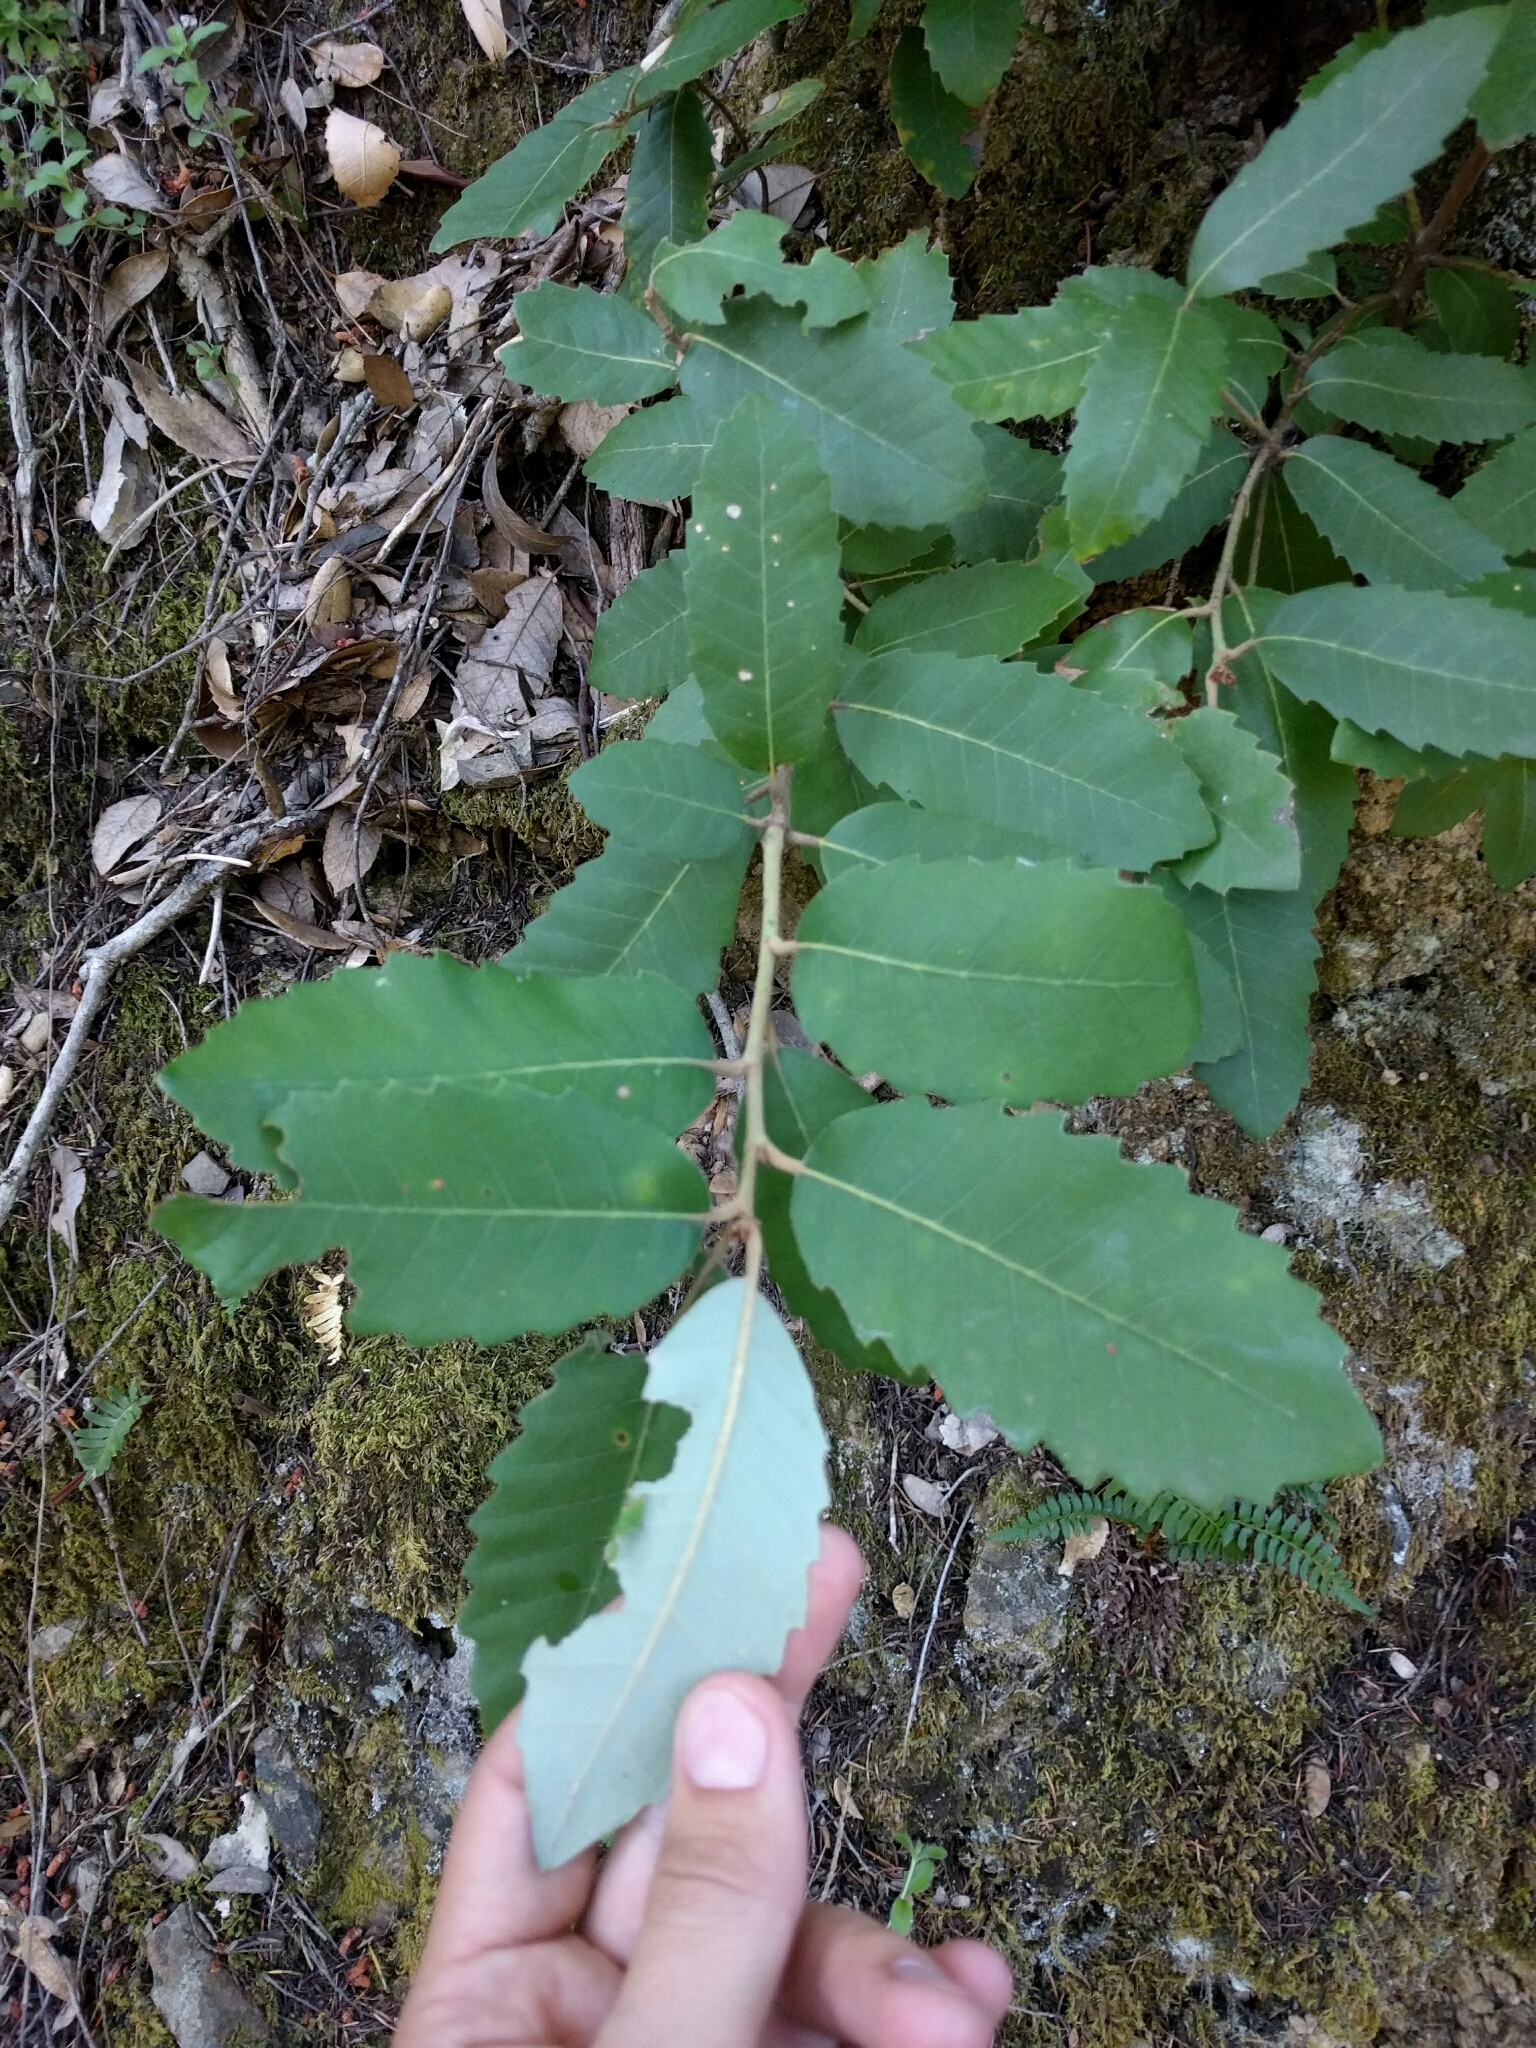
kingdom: Plantae
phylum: Tracheophyta
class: Magnoliopsida
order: Fagales
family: Fagaceae
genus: Notholithocarpus
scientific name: Notholithocarpus densiflorus
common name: Tan bark oak
